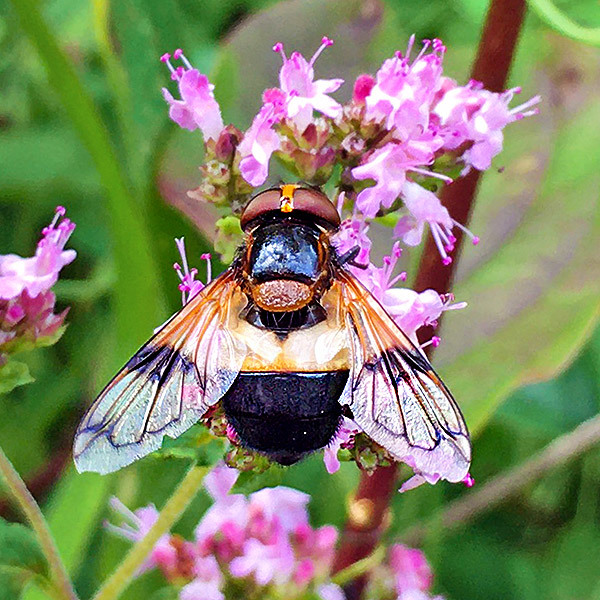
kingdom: Animalia
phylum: Arthropoda
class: Insecta
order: Diptera
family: Syrphidae
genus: Volucella
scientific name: Volucella pellucens
